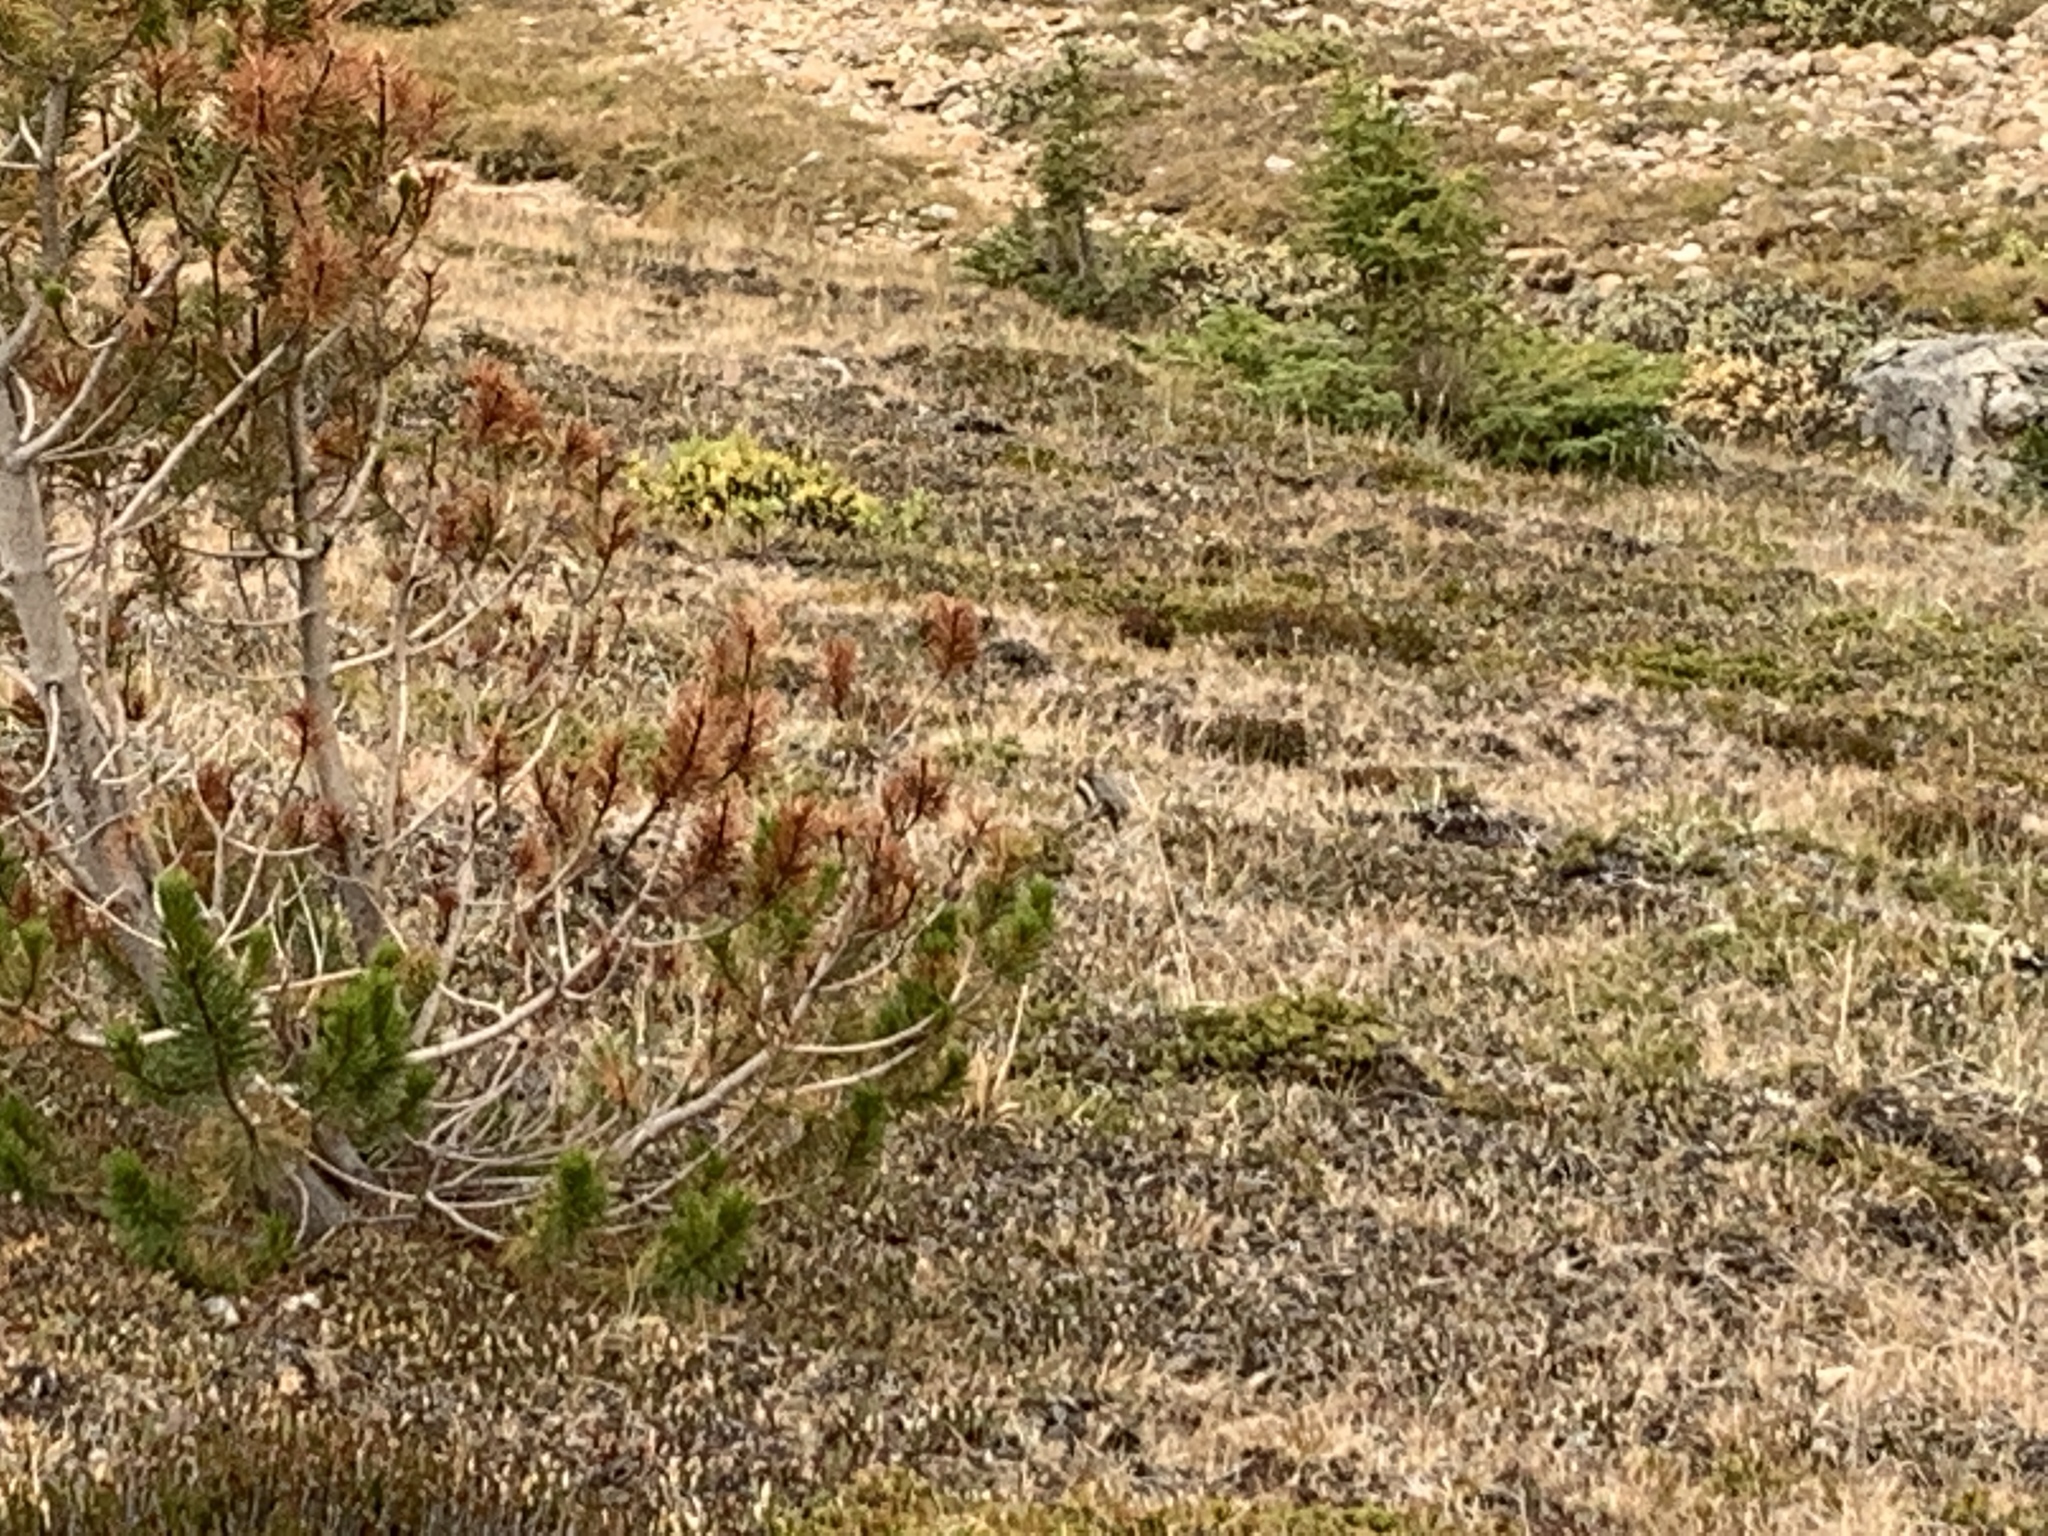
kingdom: Animalia
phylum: Chordata
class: Mammalia
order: Rodentia
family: Sciuridae
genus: Callospermophilus
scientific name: Callospermophilus lateralis
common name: Golden-mantled ground squirrel
